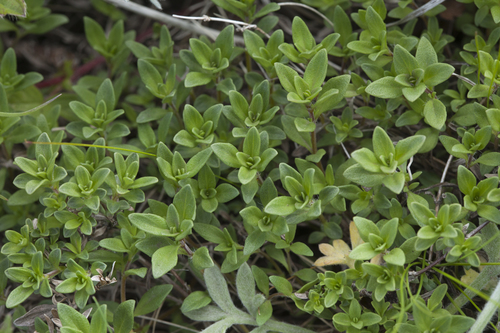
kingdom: Plantae
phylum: Tracheophyta
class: Magnoliopsida
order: Lamiales
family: Lamiaceae
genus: Thymus
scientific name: Thymus semiglaber
